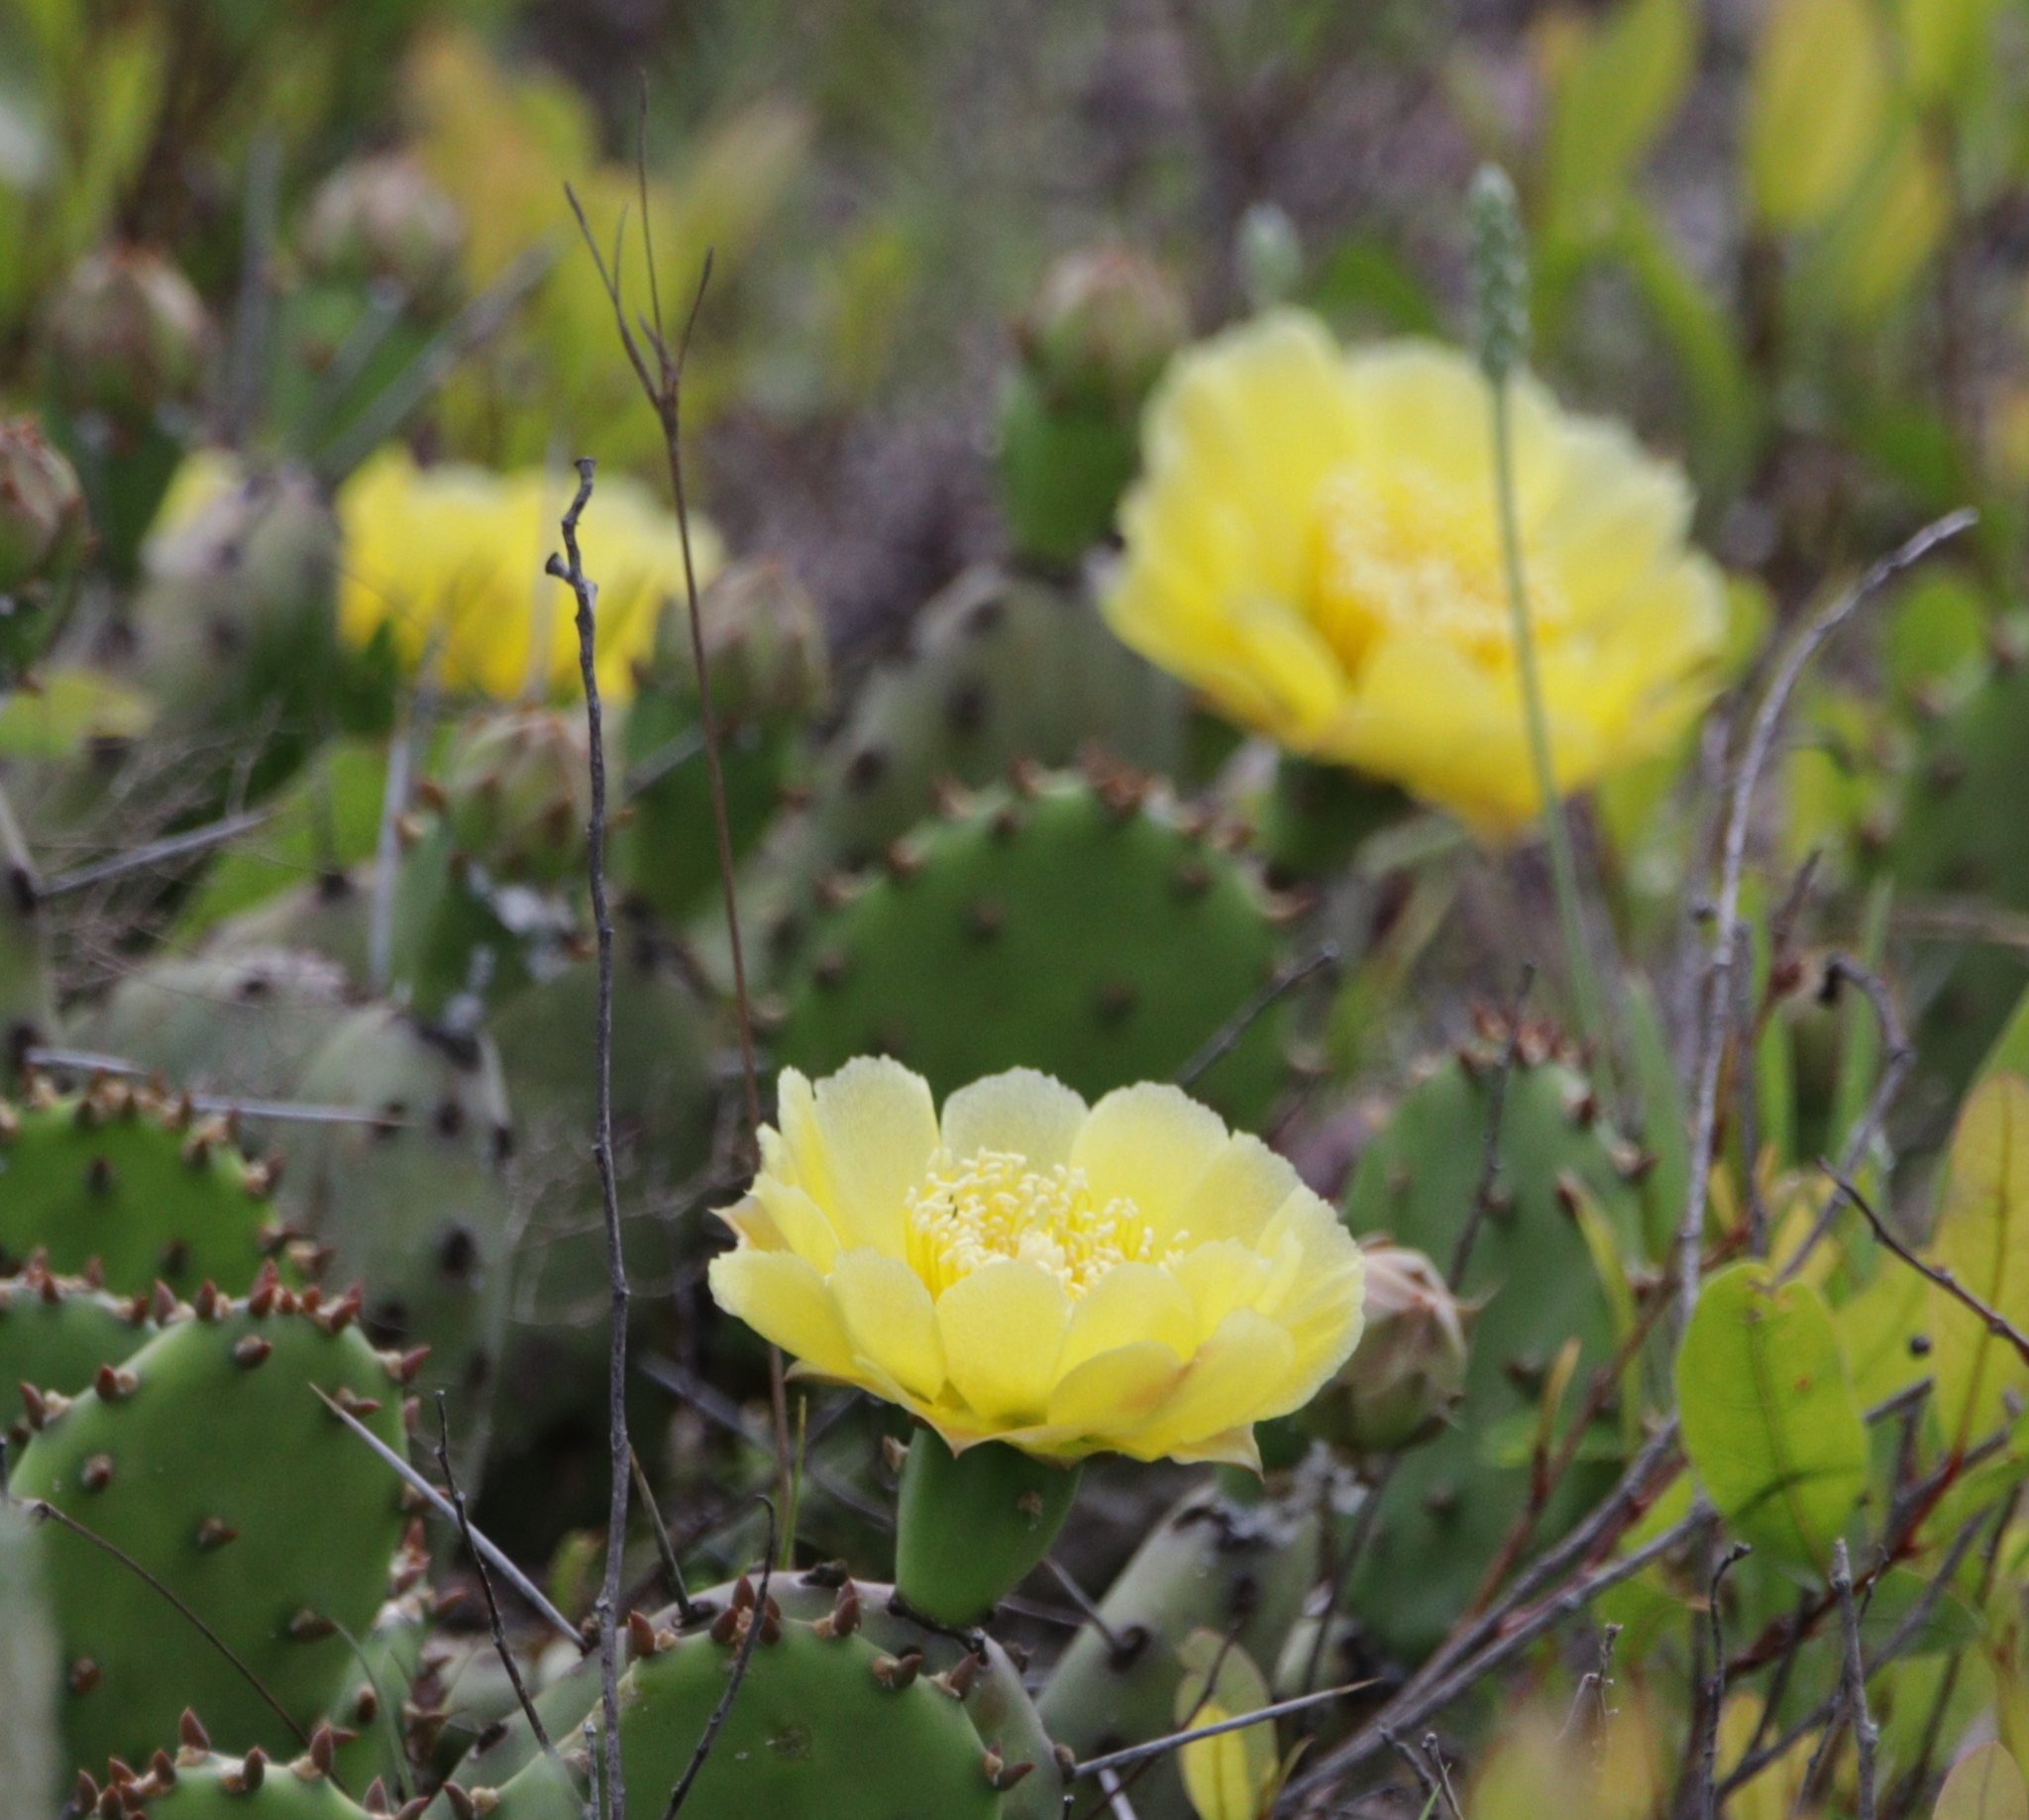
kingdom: Plantae
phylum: Tracheophyta
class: Magnoliopsida
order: Caryophyllales
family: Cactaceae
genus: Opuntia
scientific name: Opuntia mesacantha
